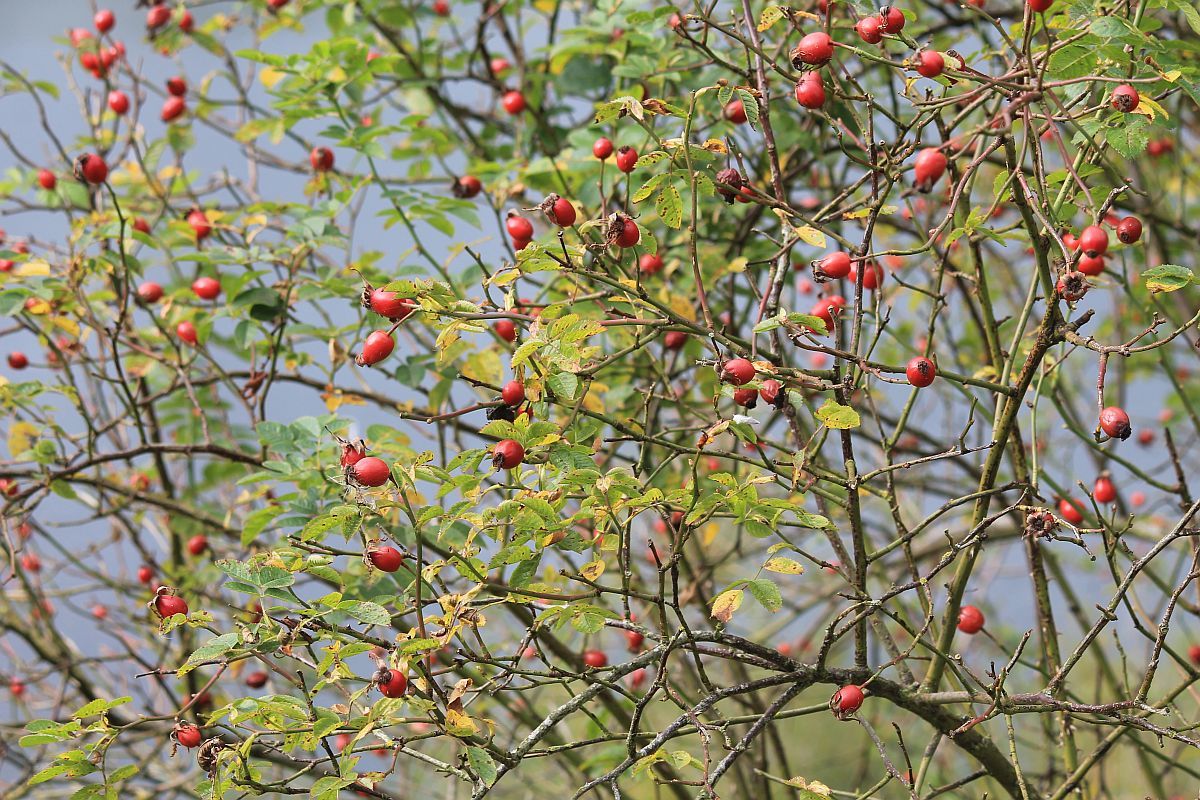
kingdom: Plantae
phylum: Tracheophyta
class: Magnoliopsida
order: Rosales
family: Rosaceae
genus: Rosa
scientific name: Rosa canina
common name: Dog rose
